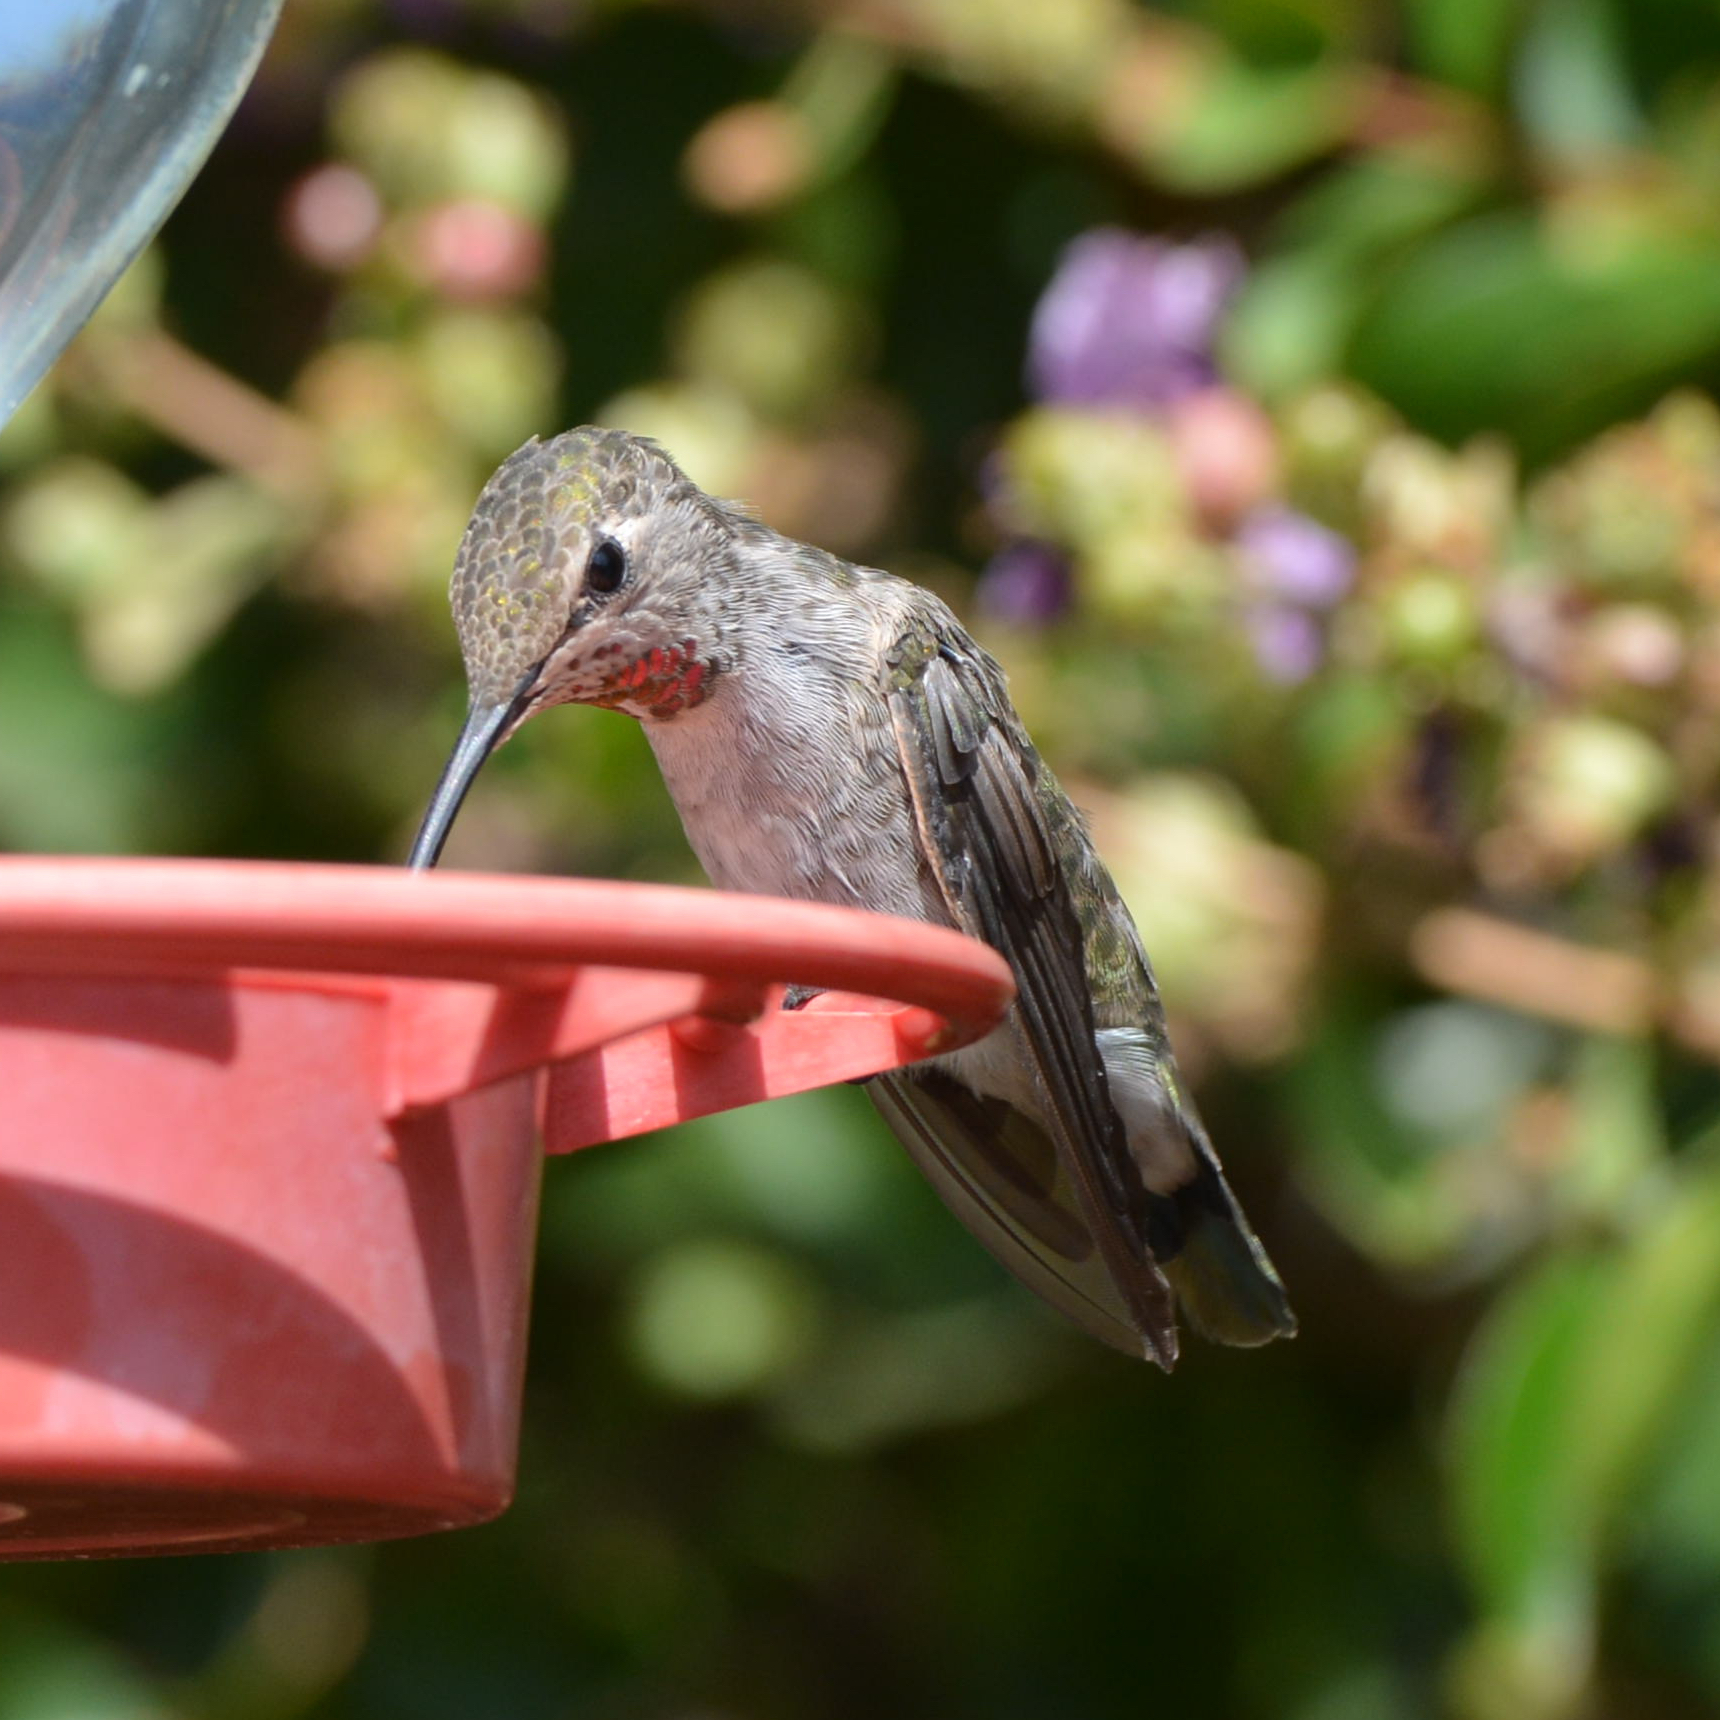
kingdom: Animalia
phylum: Chordata
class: Aves
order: Apodiformes
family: Trochilidae
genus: Calypte
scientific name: Calypte anna
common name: Anna's hummingbird
